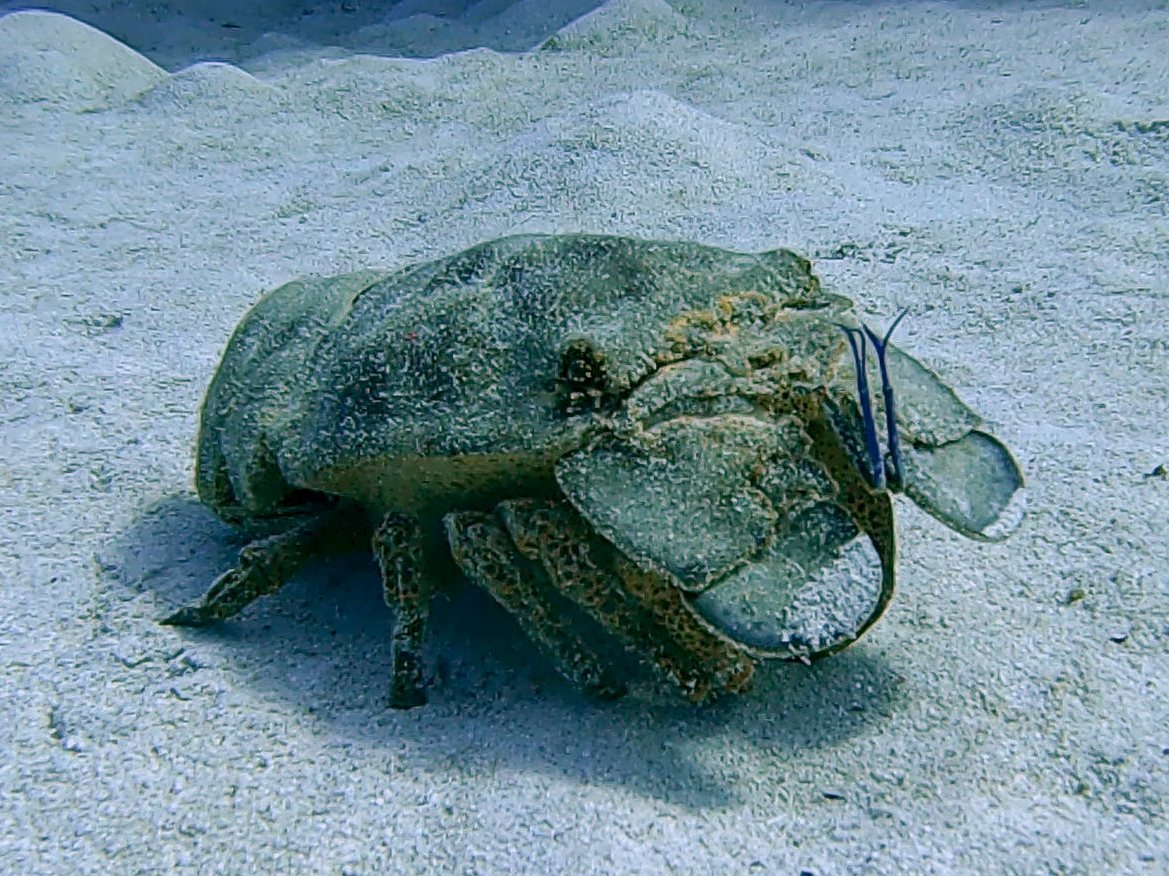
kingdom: Animalia
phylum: Arthropoda
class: Malacostraca
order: Decapoda
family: Scyllaridae
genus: Scyllarides
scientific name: Scyllarides aequinoctialis
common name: Spanish slipper lobster
